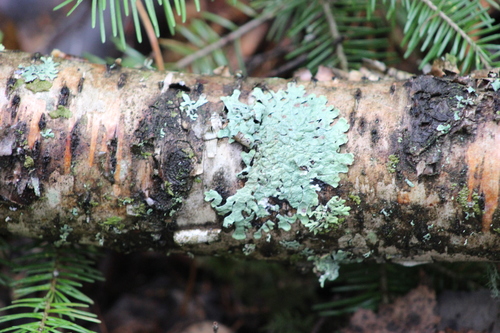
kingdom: Fungi
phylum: Ascomycota
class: Lecanoromycetes
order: Lecanorales
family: Parmeliaceae
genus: Parmelia
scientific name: Parmelia sulcata
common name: Netted shield lichen
